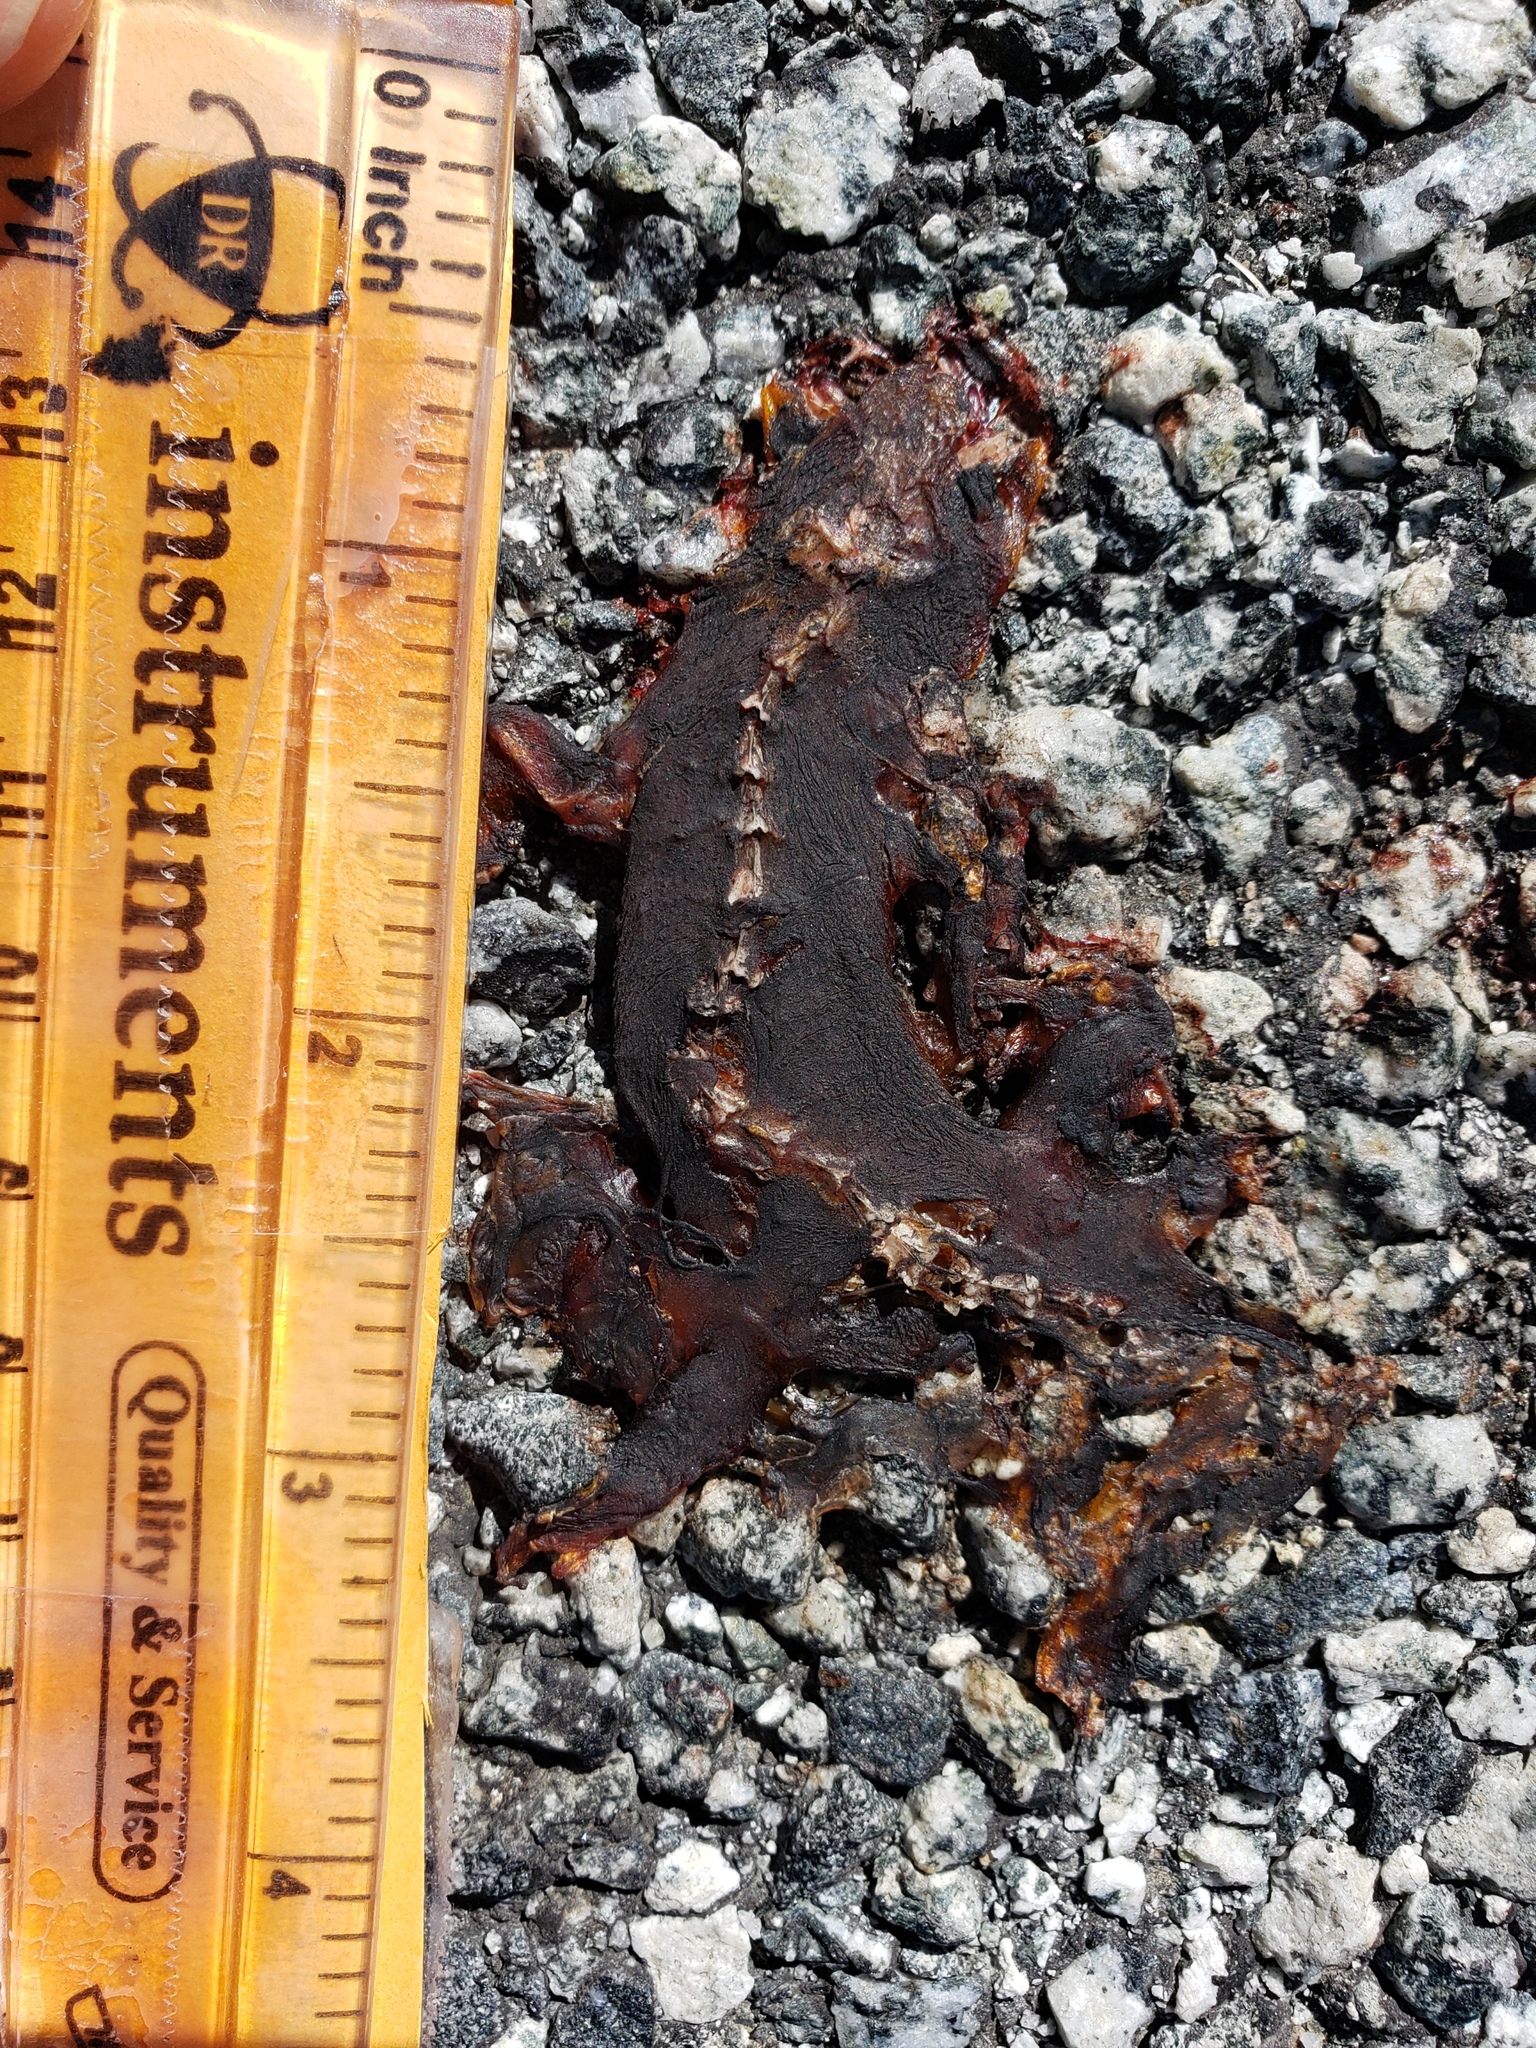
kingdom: Animalia
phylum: Chordata
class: Amphibia
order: Caudata
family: Salamandridae
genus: Taricha
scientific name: Taricha
